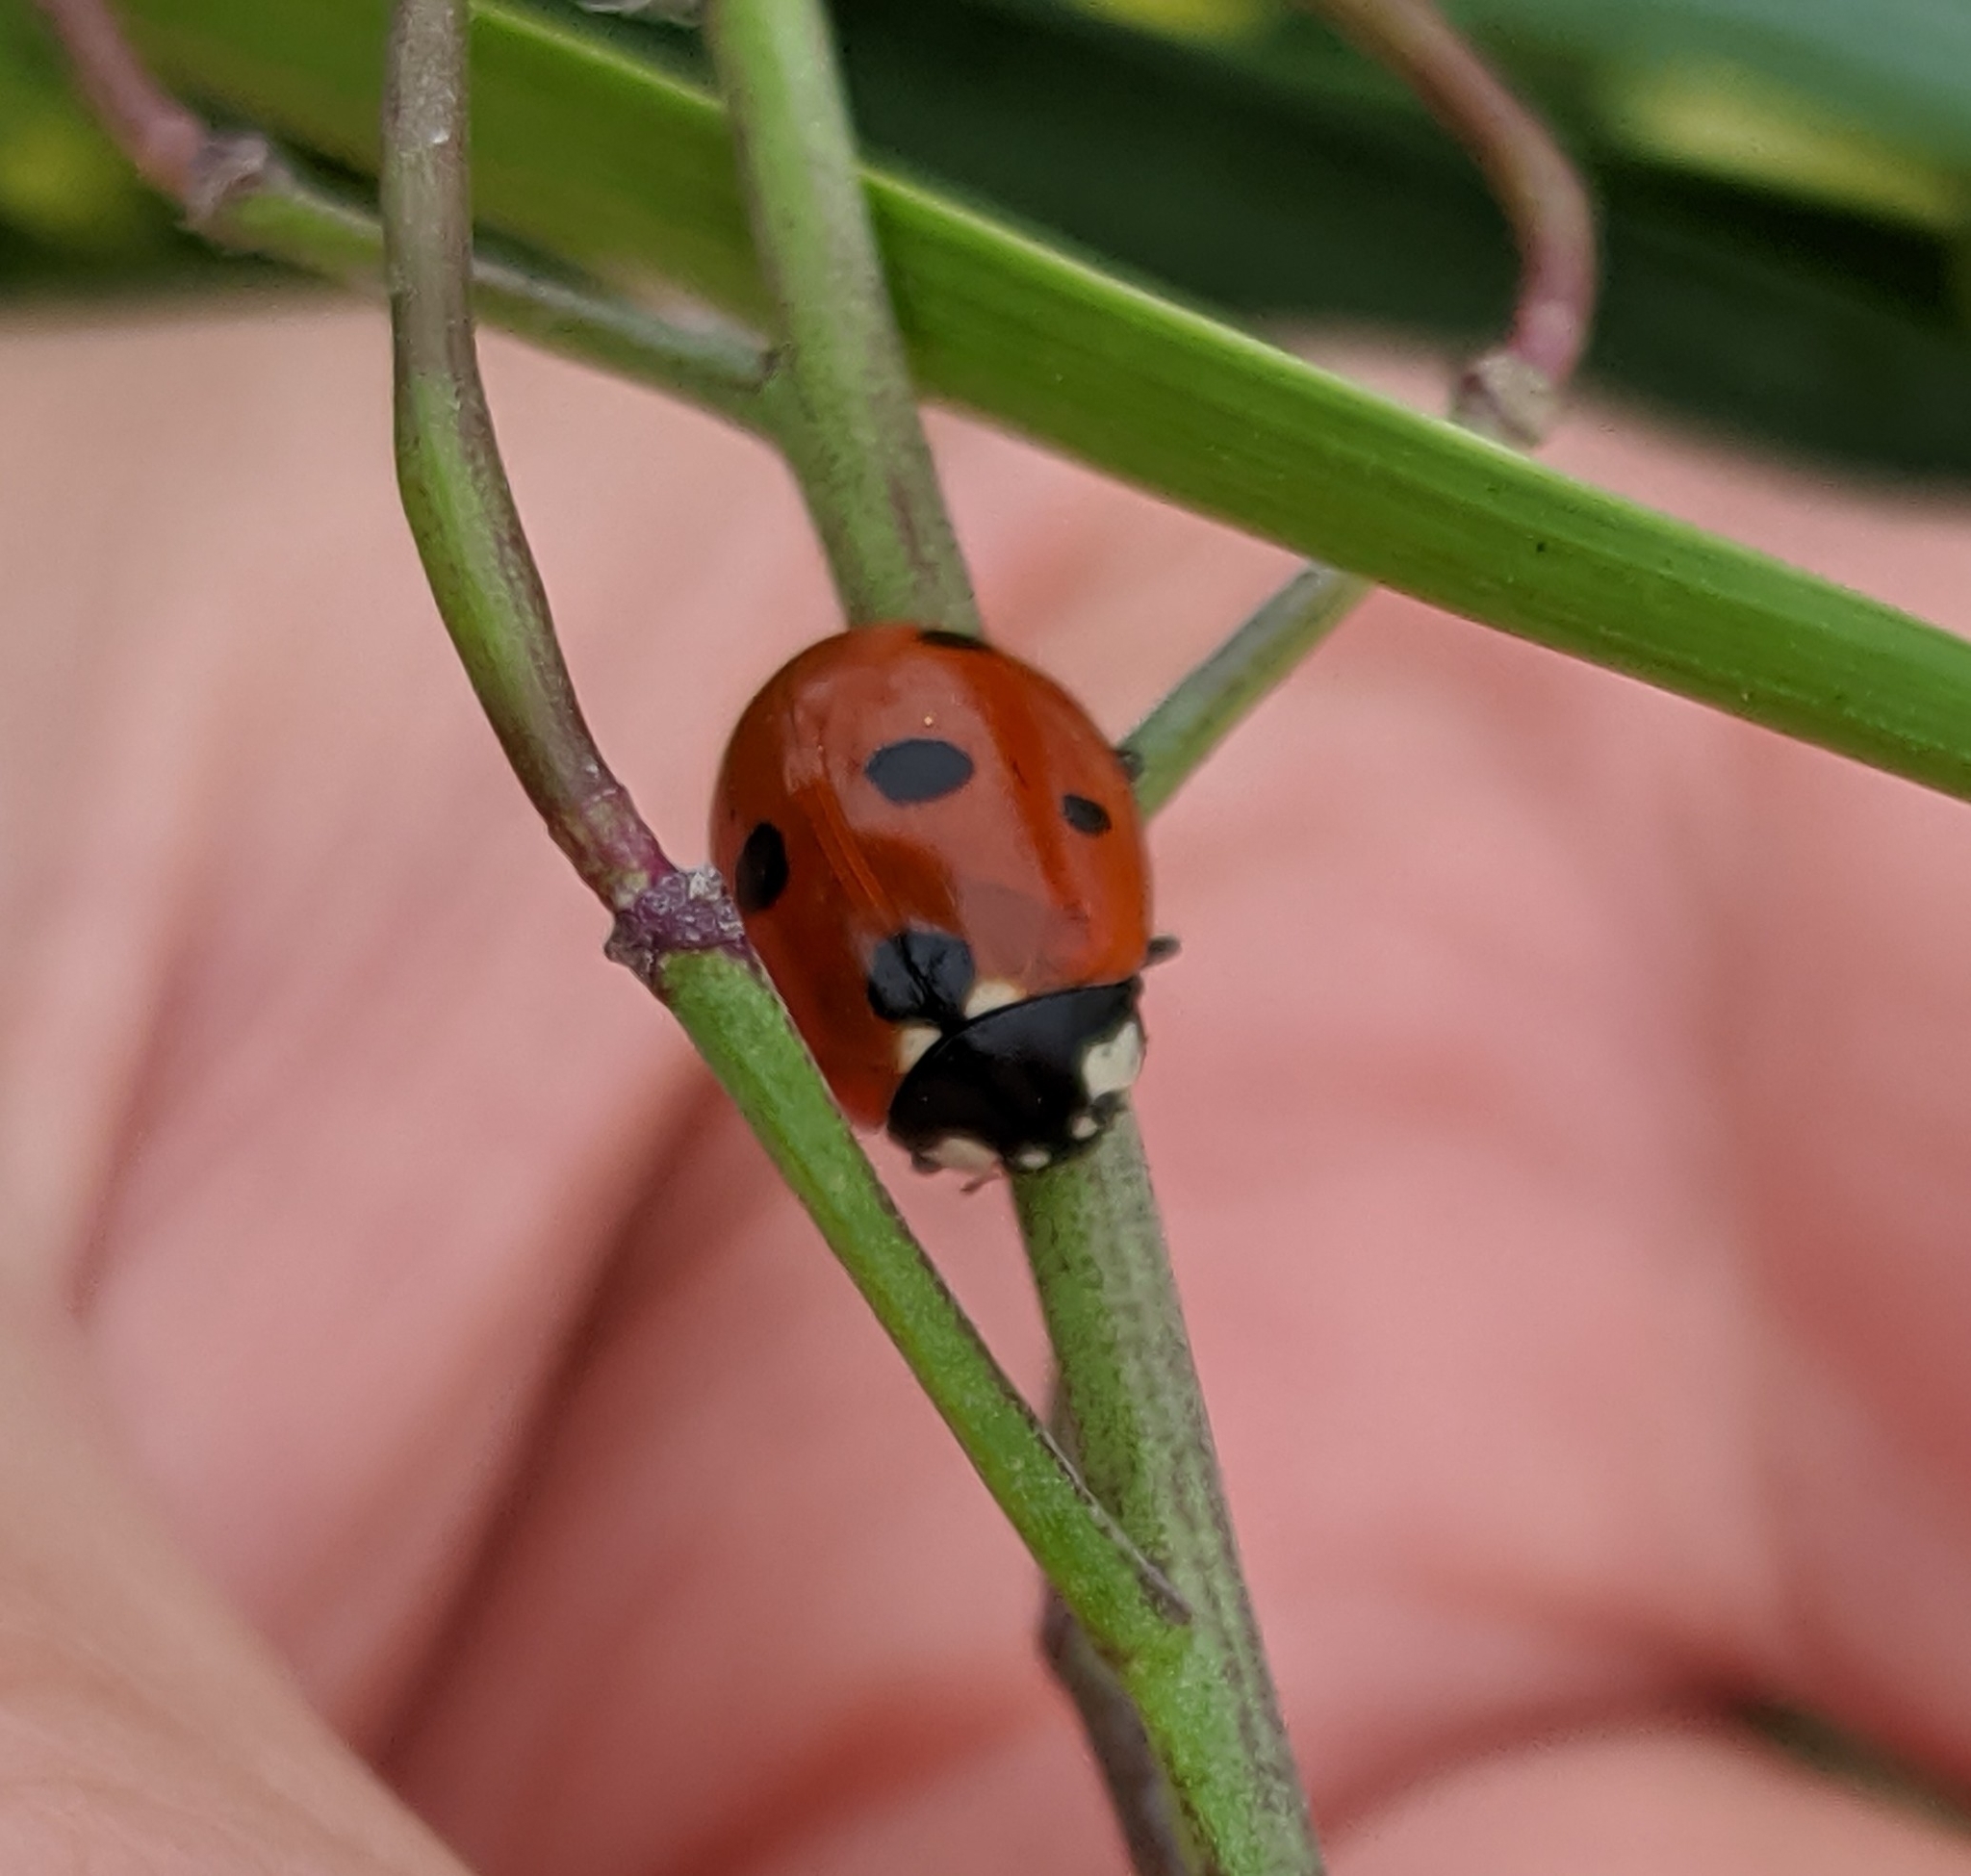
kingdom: Animalia
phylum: Arthropoda
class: Insecta
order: Coleoptera
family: Coccinellidae
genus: Coccinella
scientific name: Coccinella septempunctata
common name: Sevenspotted lady beetle
